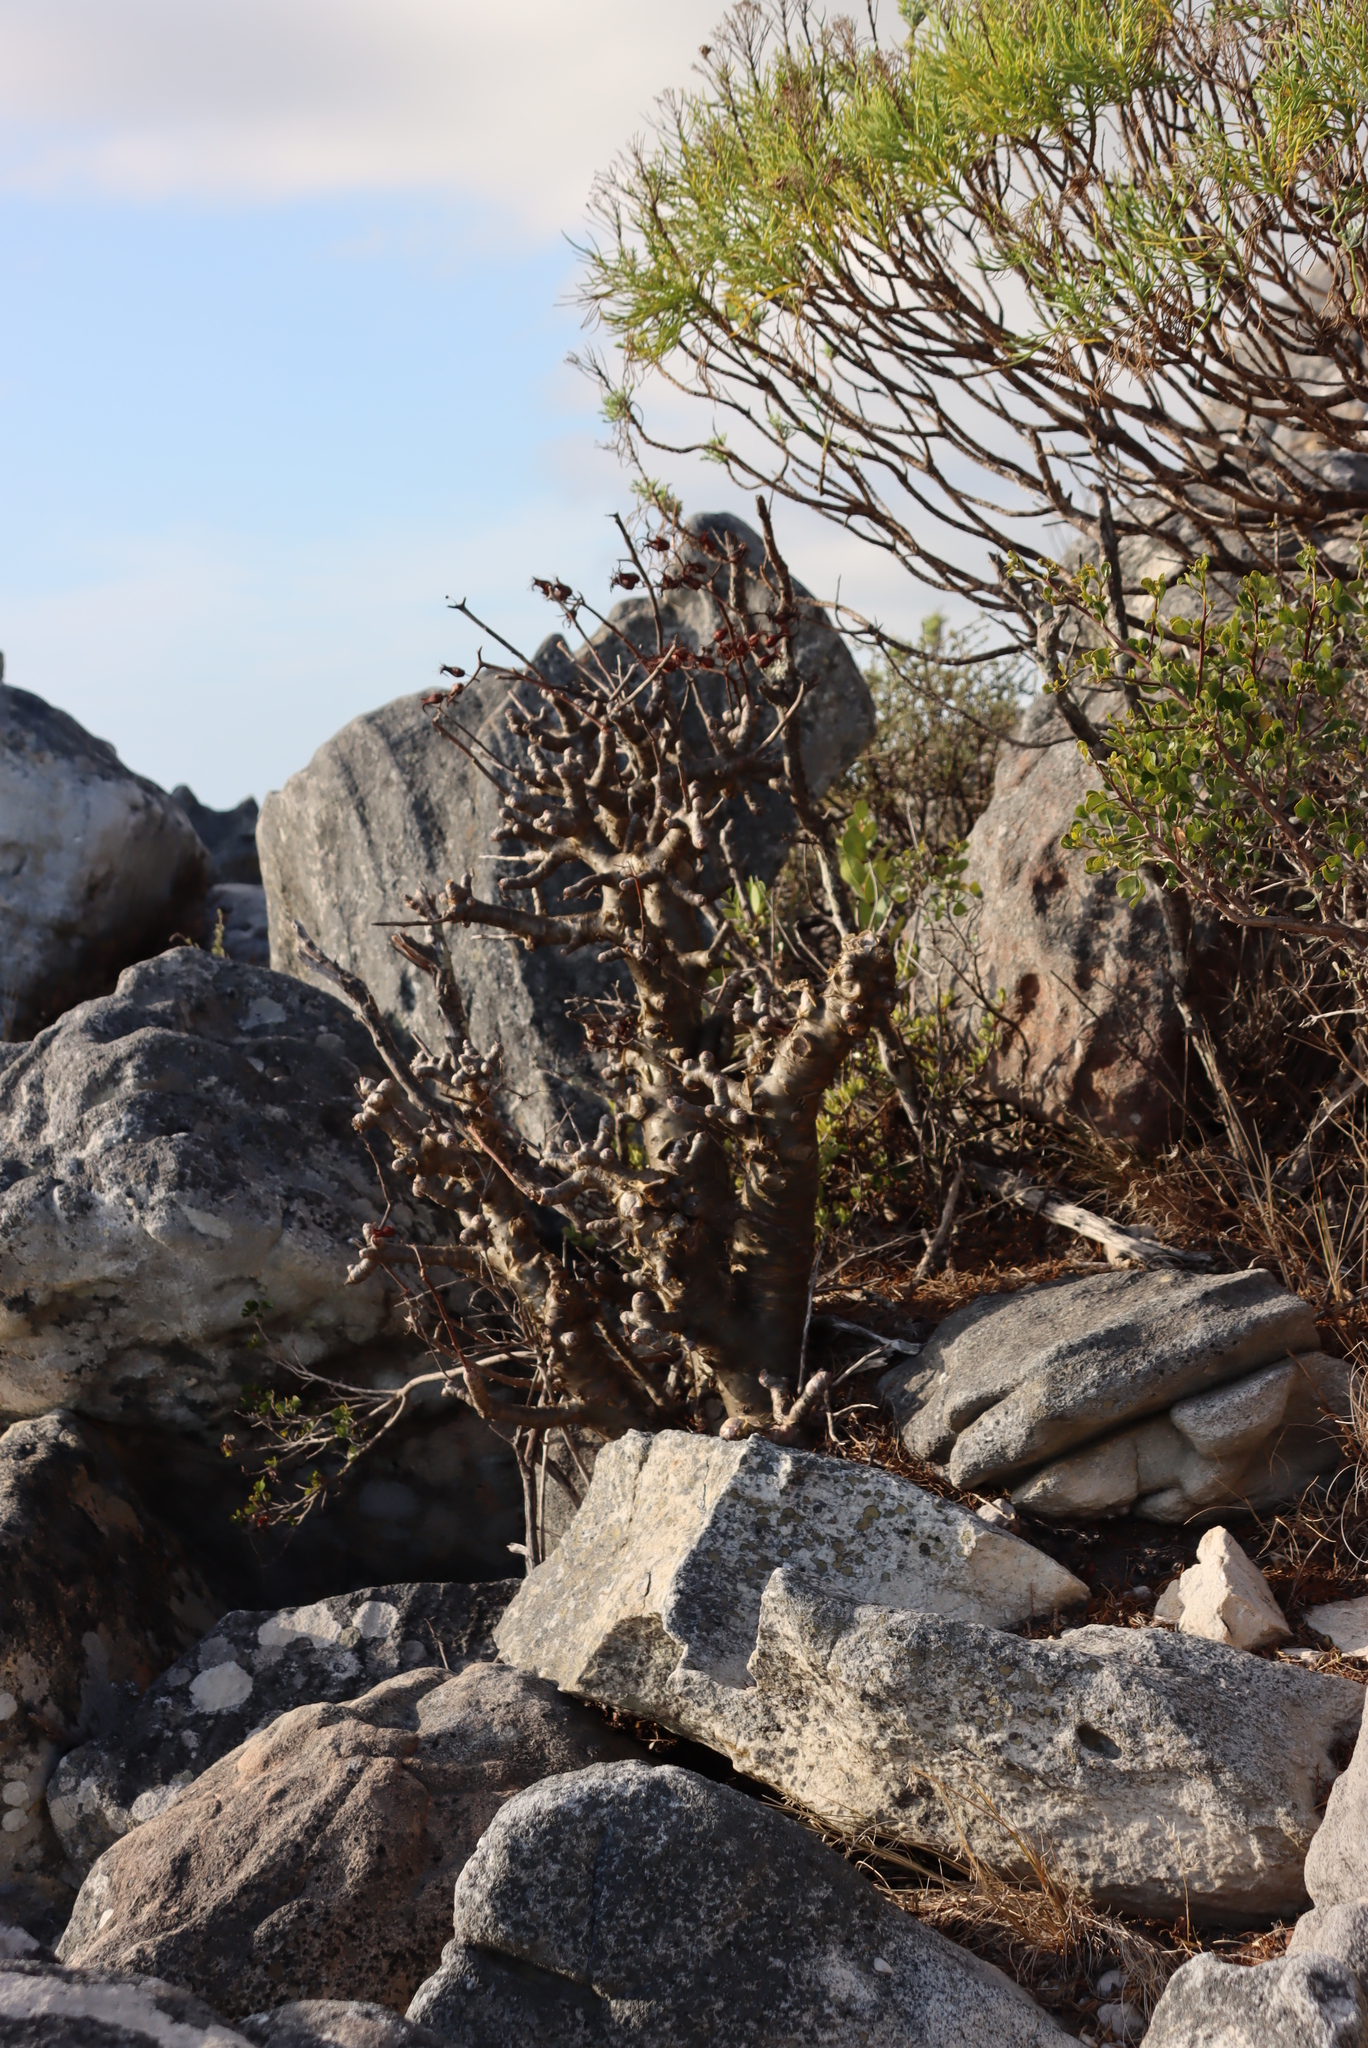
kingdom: Plantae
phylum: Tracheophyta
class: Magnoliopsida
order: Saxifragales
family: Crassulaceae
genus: Tylecodon
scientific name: Tylecodon paniculatus
